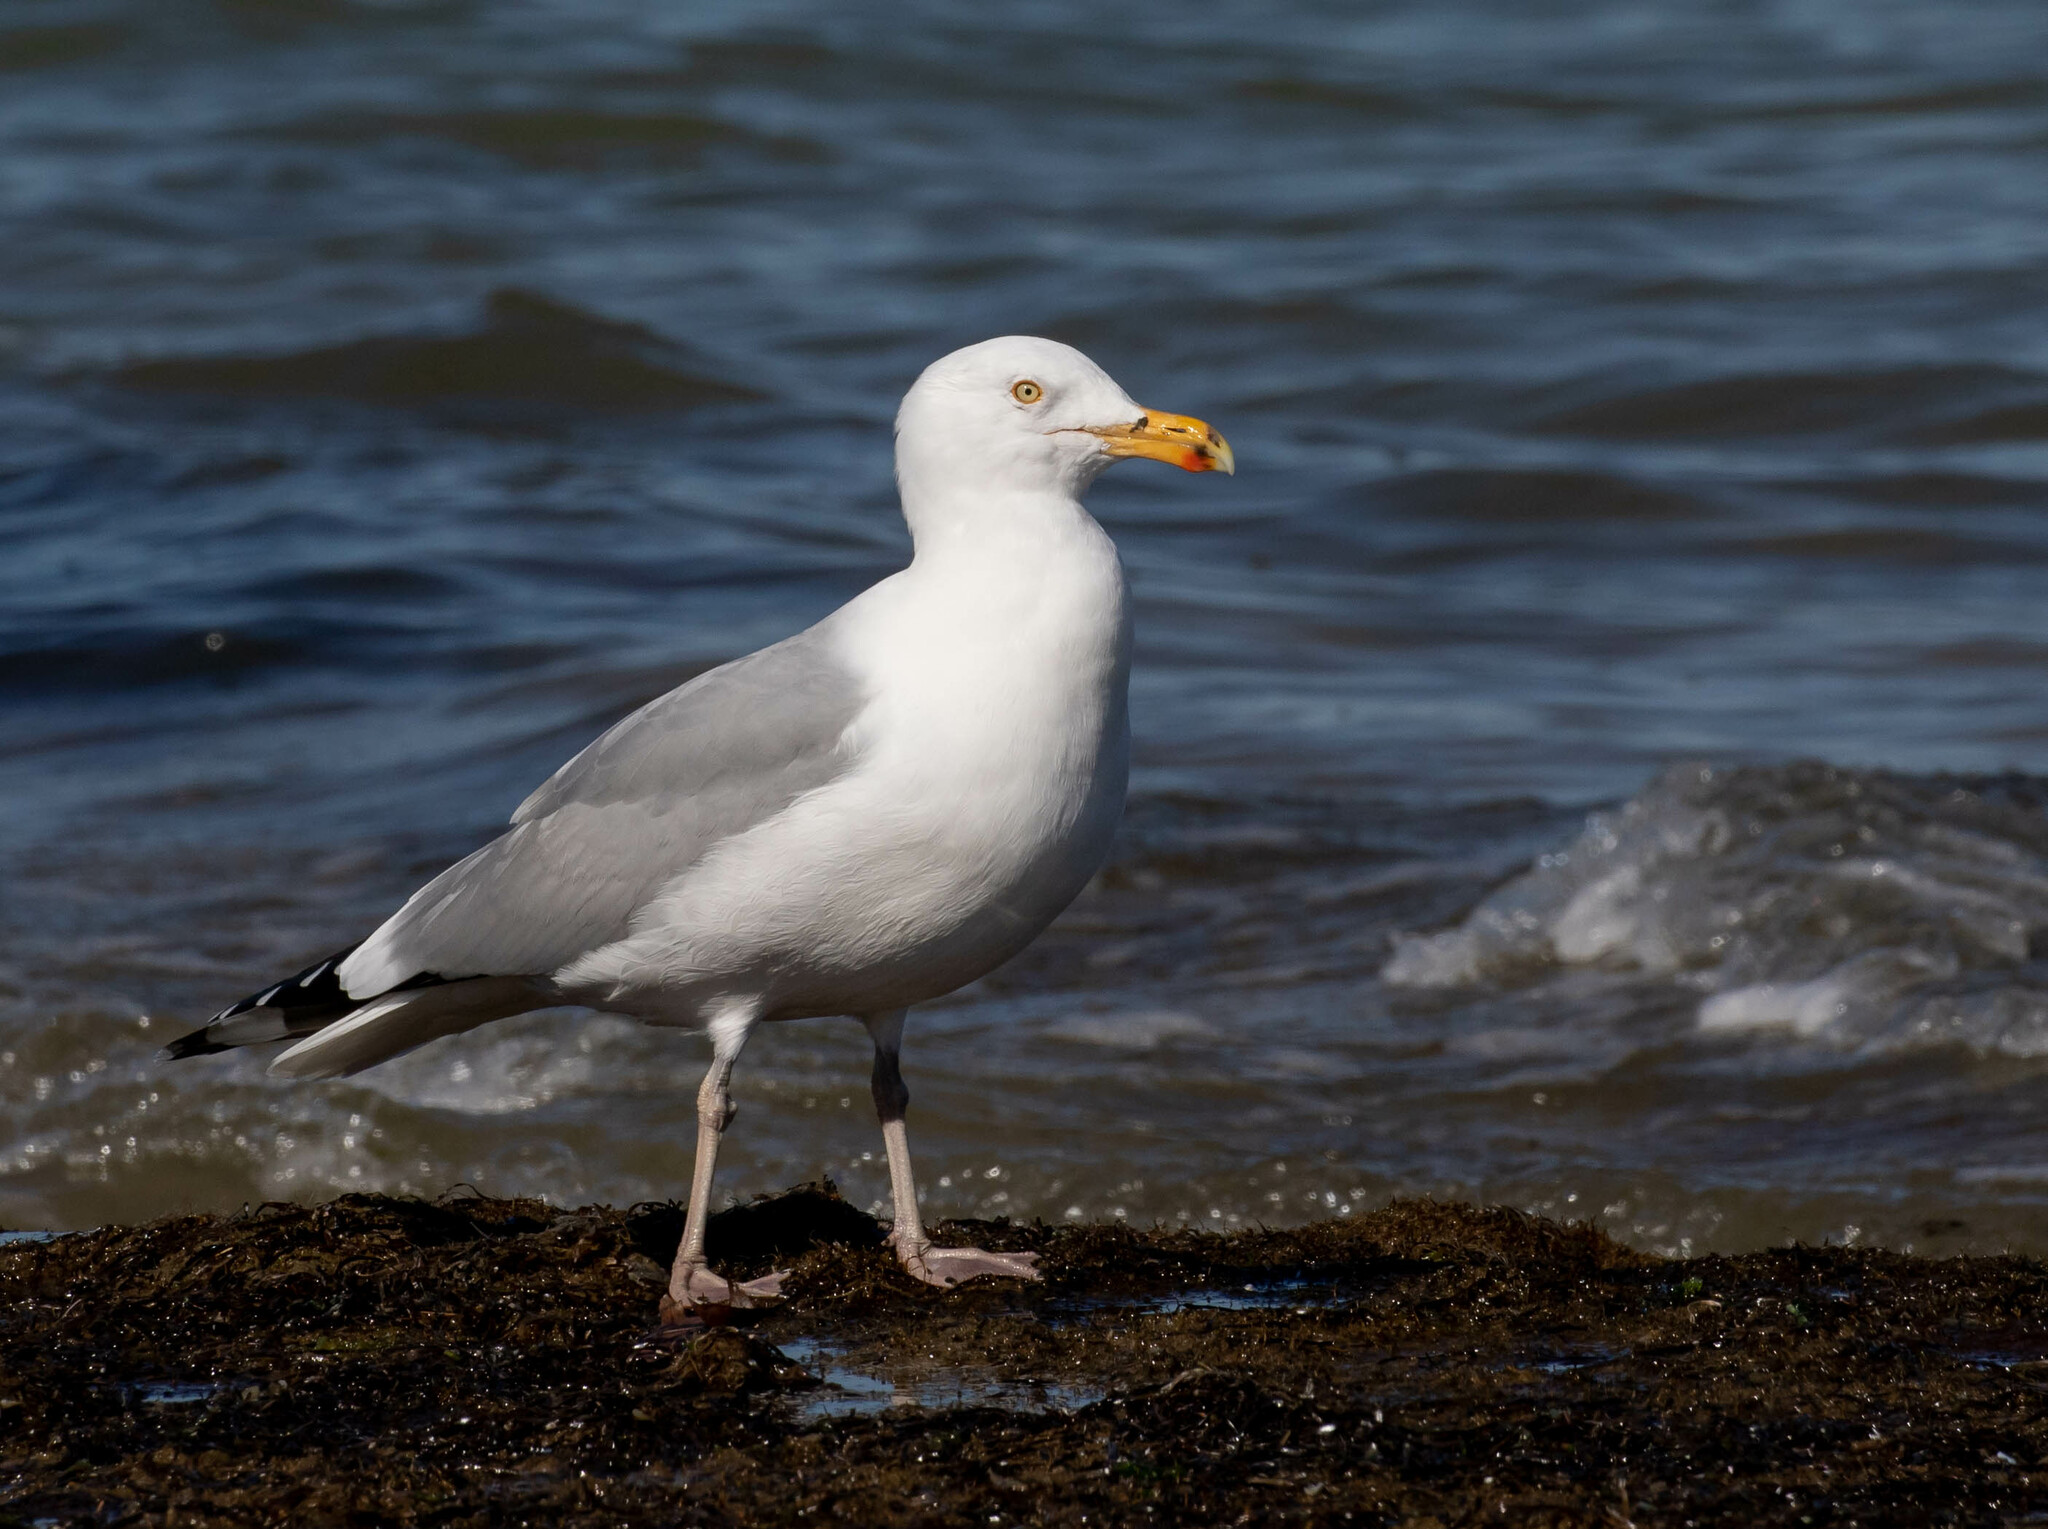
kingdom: Animalia
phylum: Chordata
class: Aves
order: Charadriiformes
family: Laridae
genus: Larus
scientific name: Larus argentatus
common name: Herring gull
